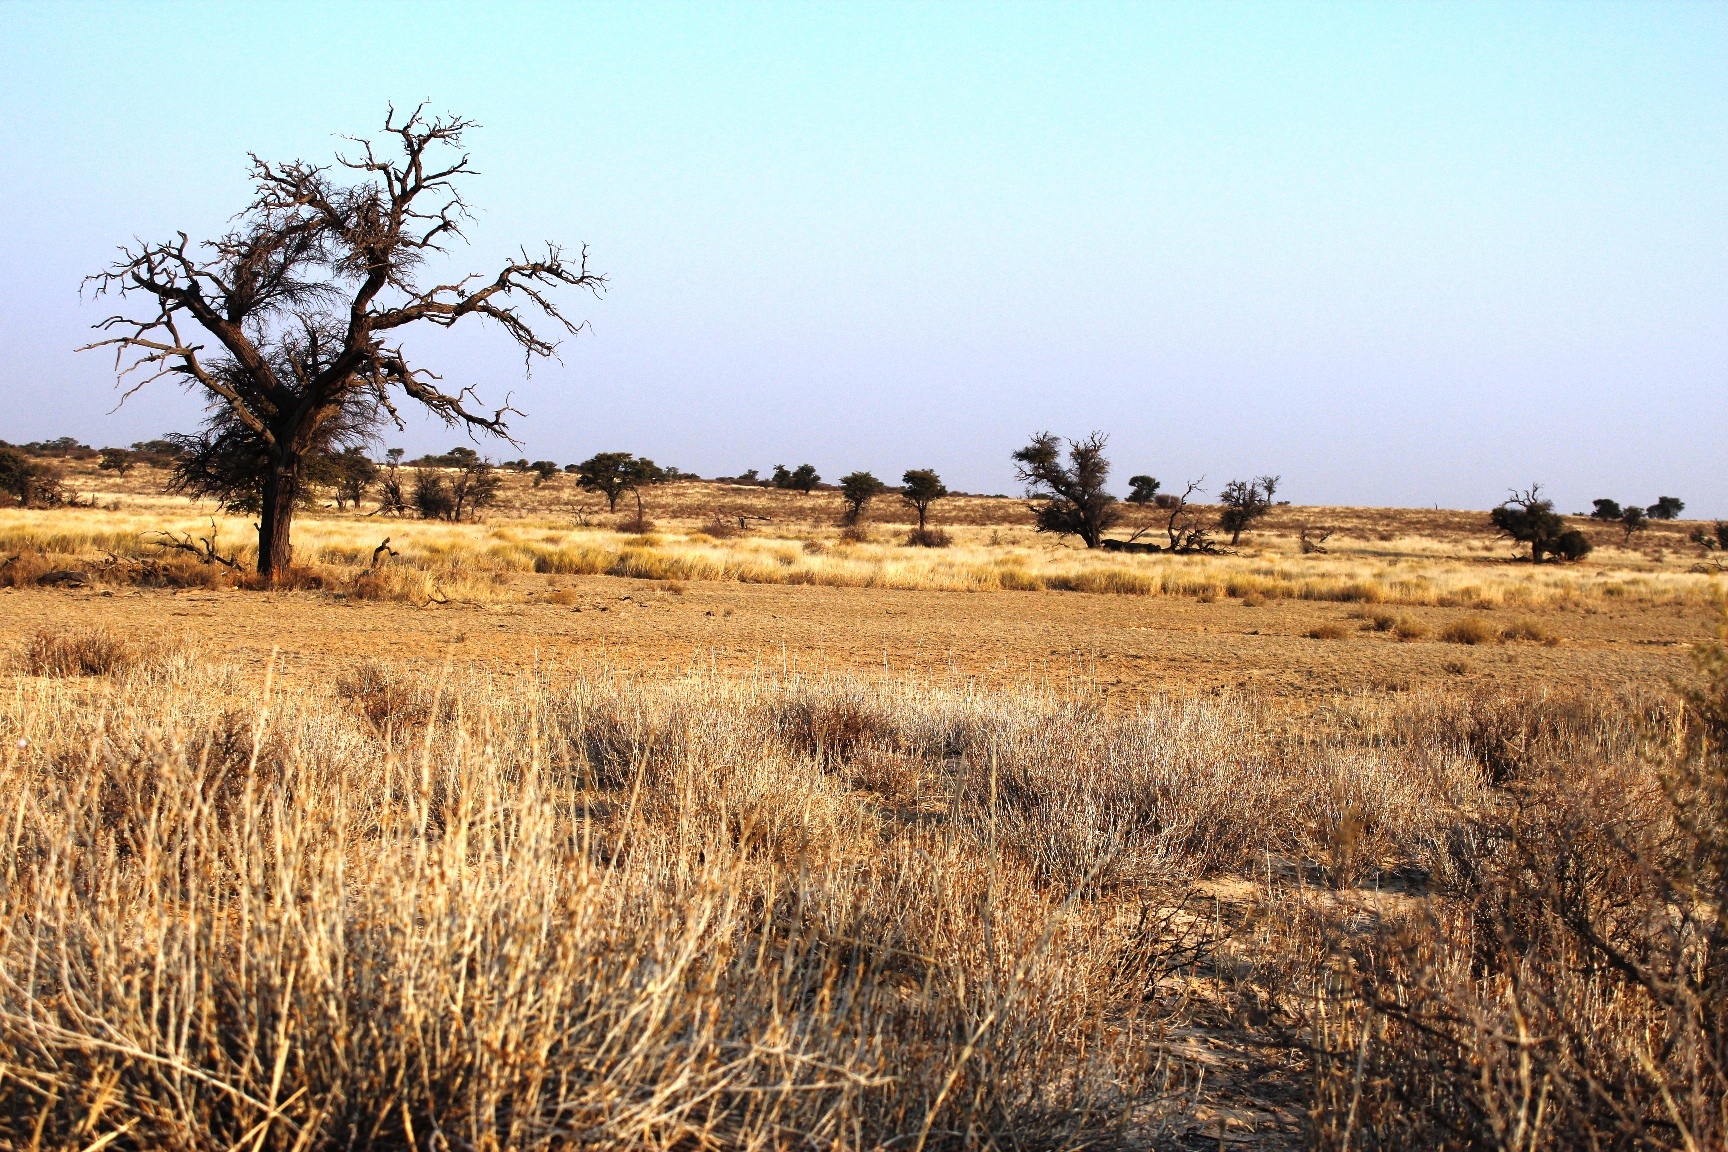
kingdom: Plantae
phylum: Tracheophyta
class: Magnoliopsida
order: Fabales
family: Fabaceae
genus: Vachellia
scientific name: Vachellia erioloba
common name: Camel thorn
